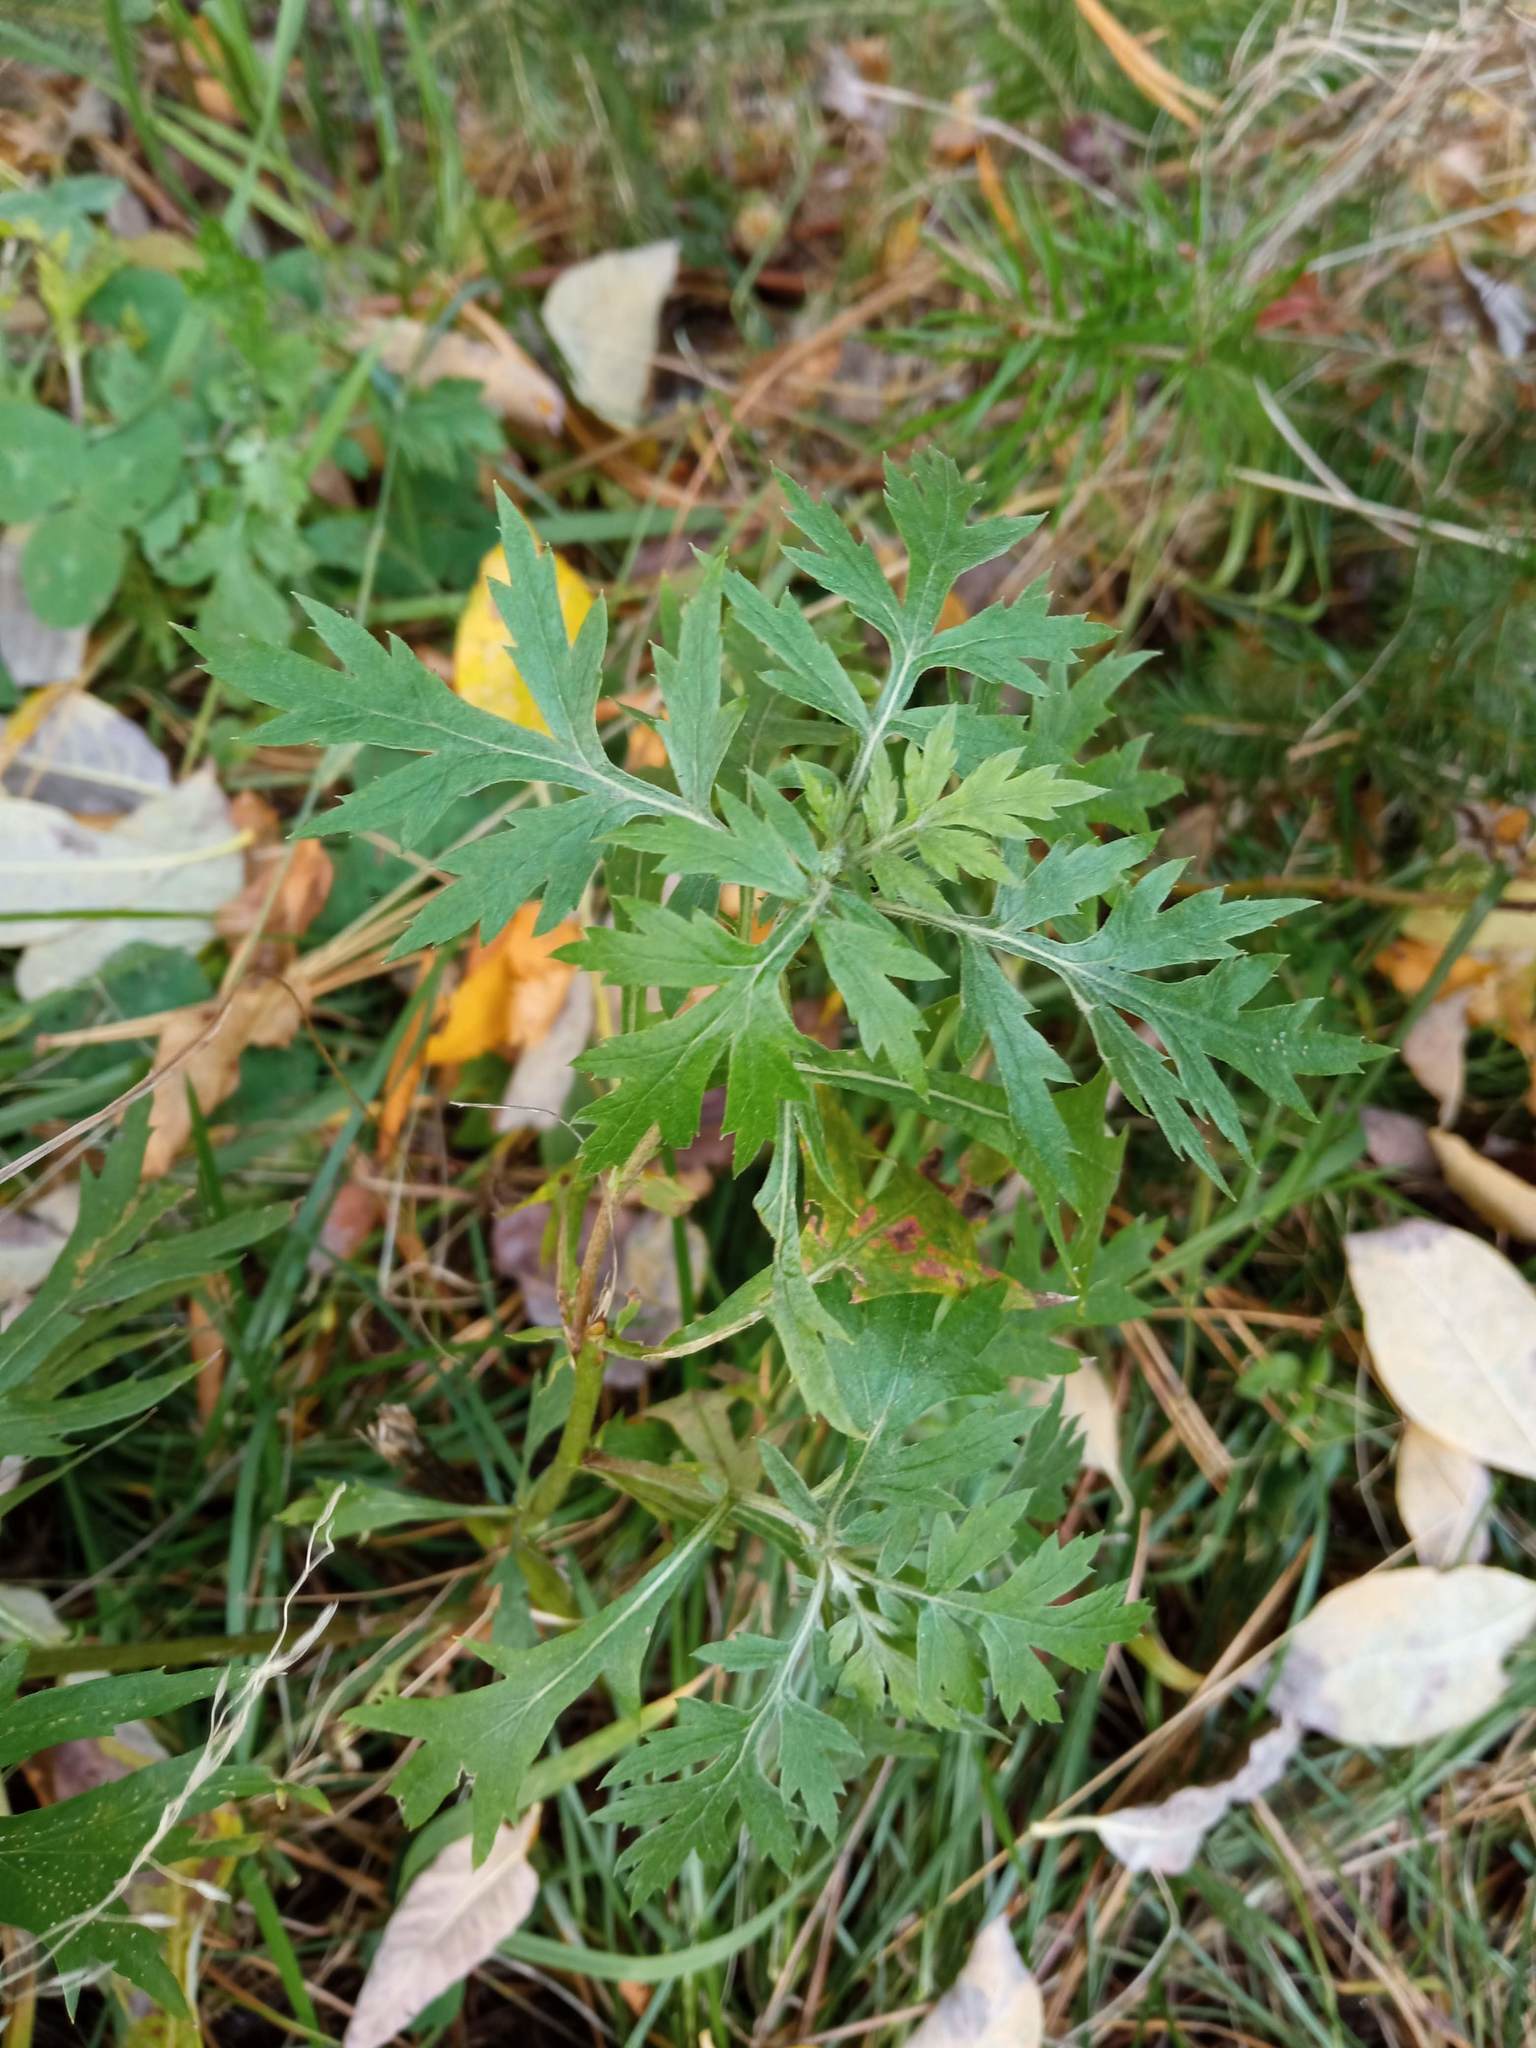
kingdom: Plantae
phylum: Tracheophyta
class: Magnoliopsida
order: Asterales
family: Asteraceae
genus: Artemisia
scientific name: Artemisia vulgaris
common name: Mugwort
